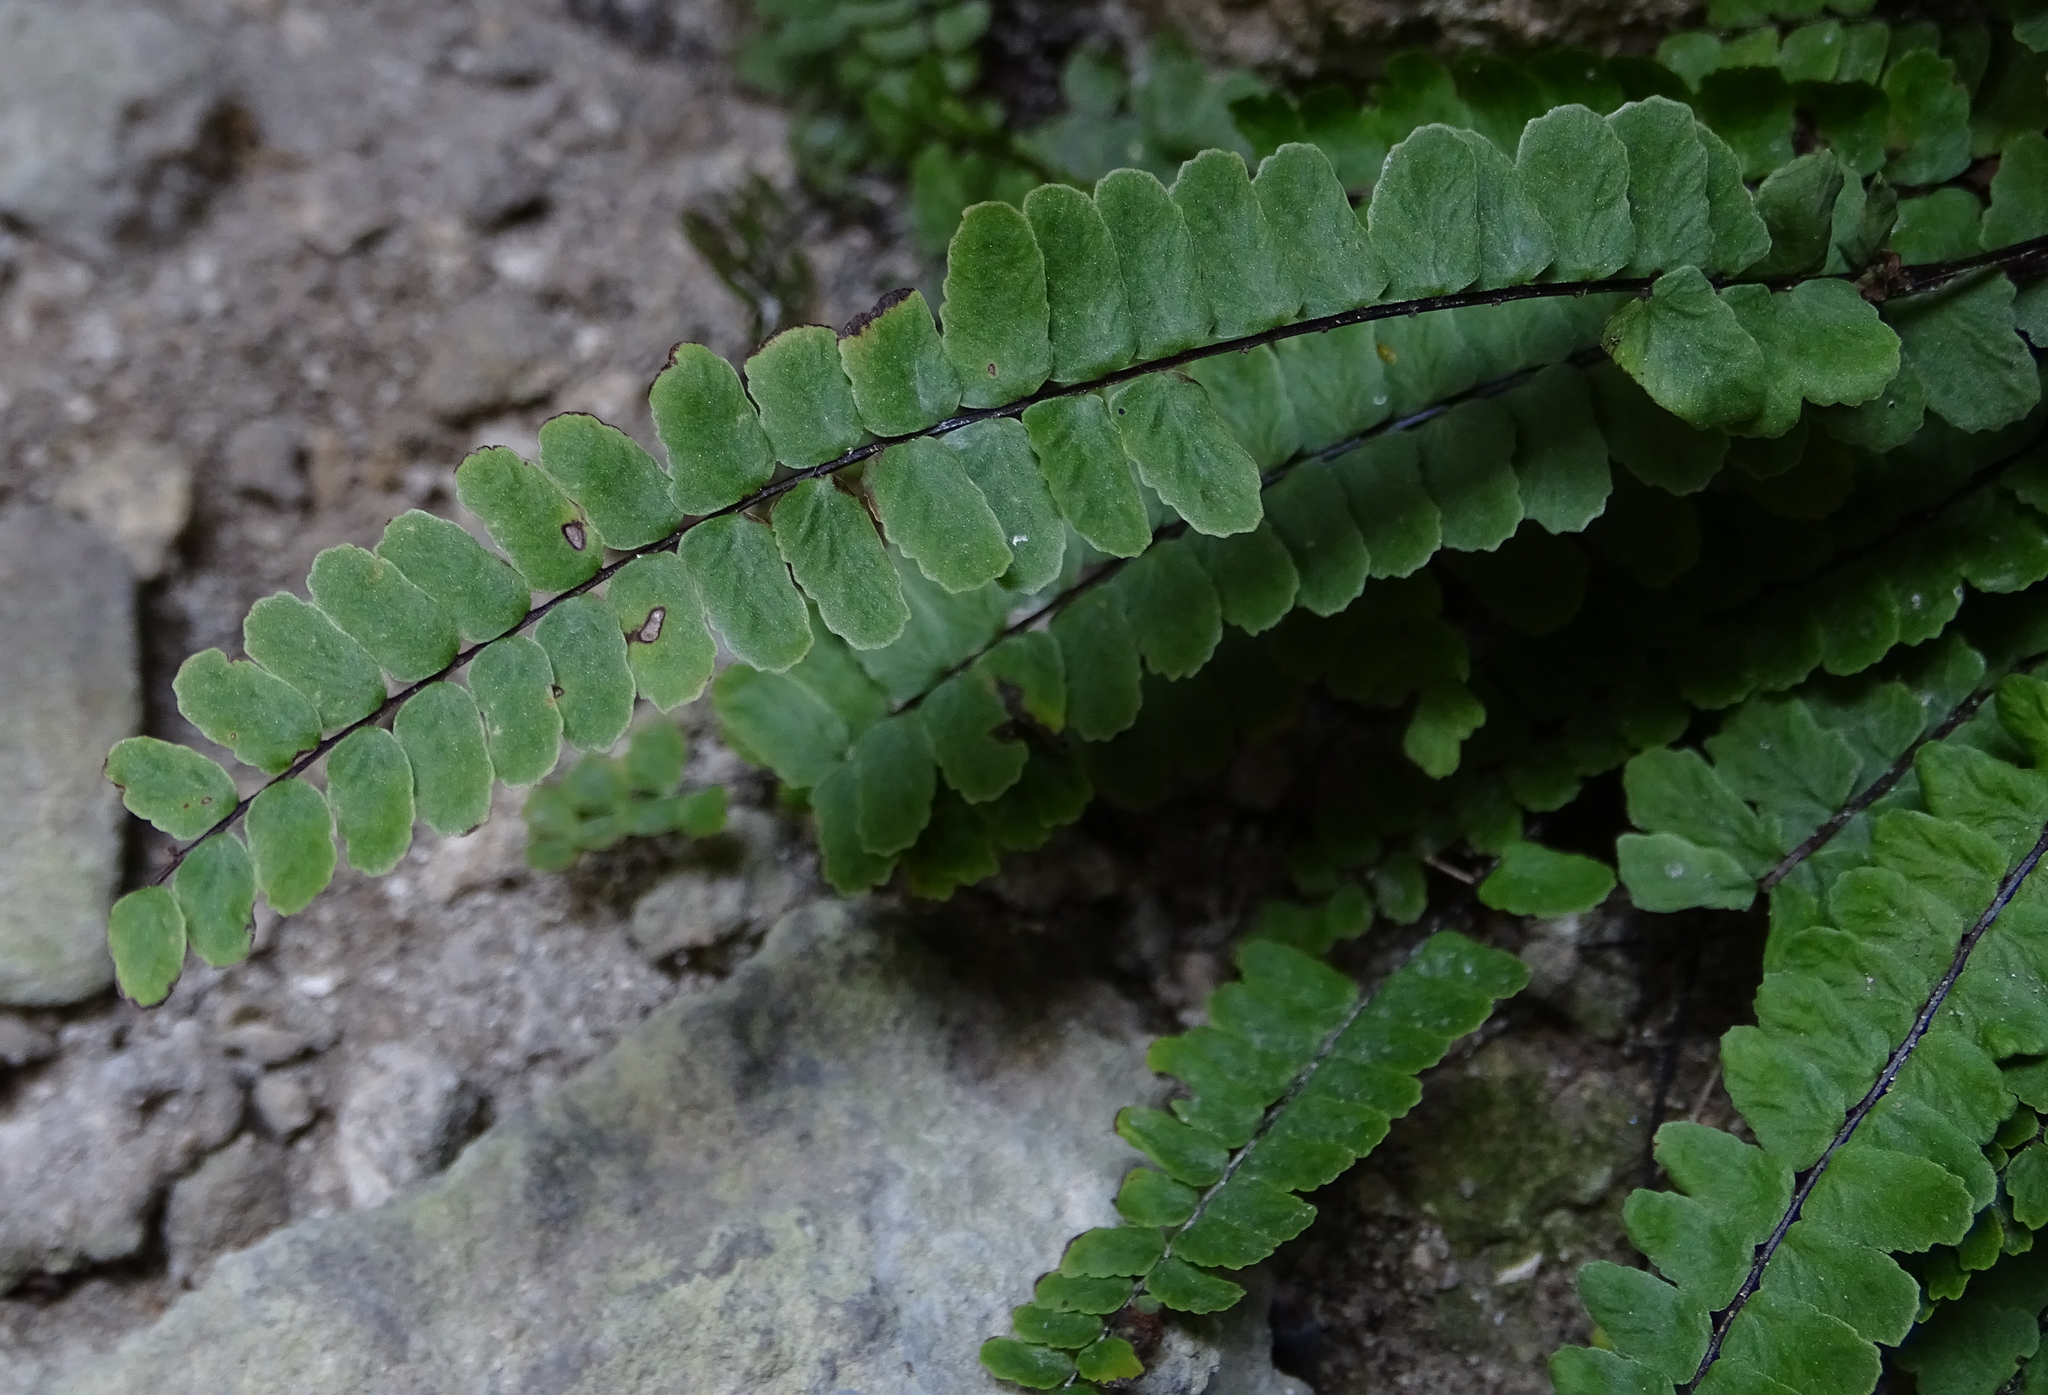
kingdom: Plantae
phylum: Tracheophyta
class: Polypodiopsida
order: Polypodiales
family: Aspleniaceae
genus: Asplenium
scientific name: Asplenium trichomanes
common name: Maidenhair spleenwort
